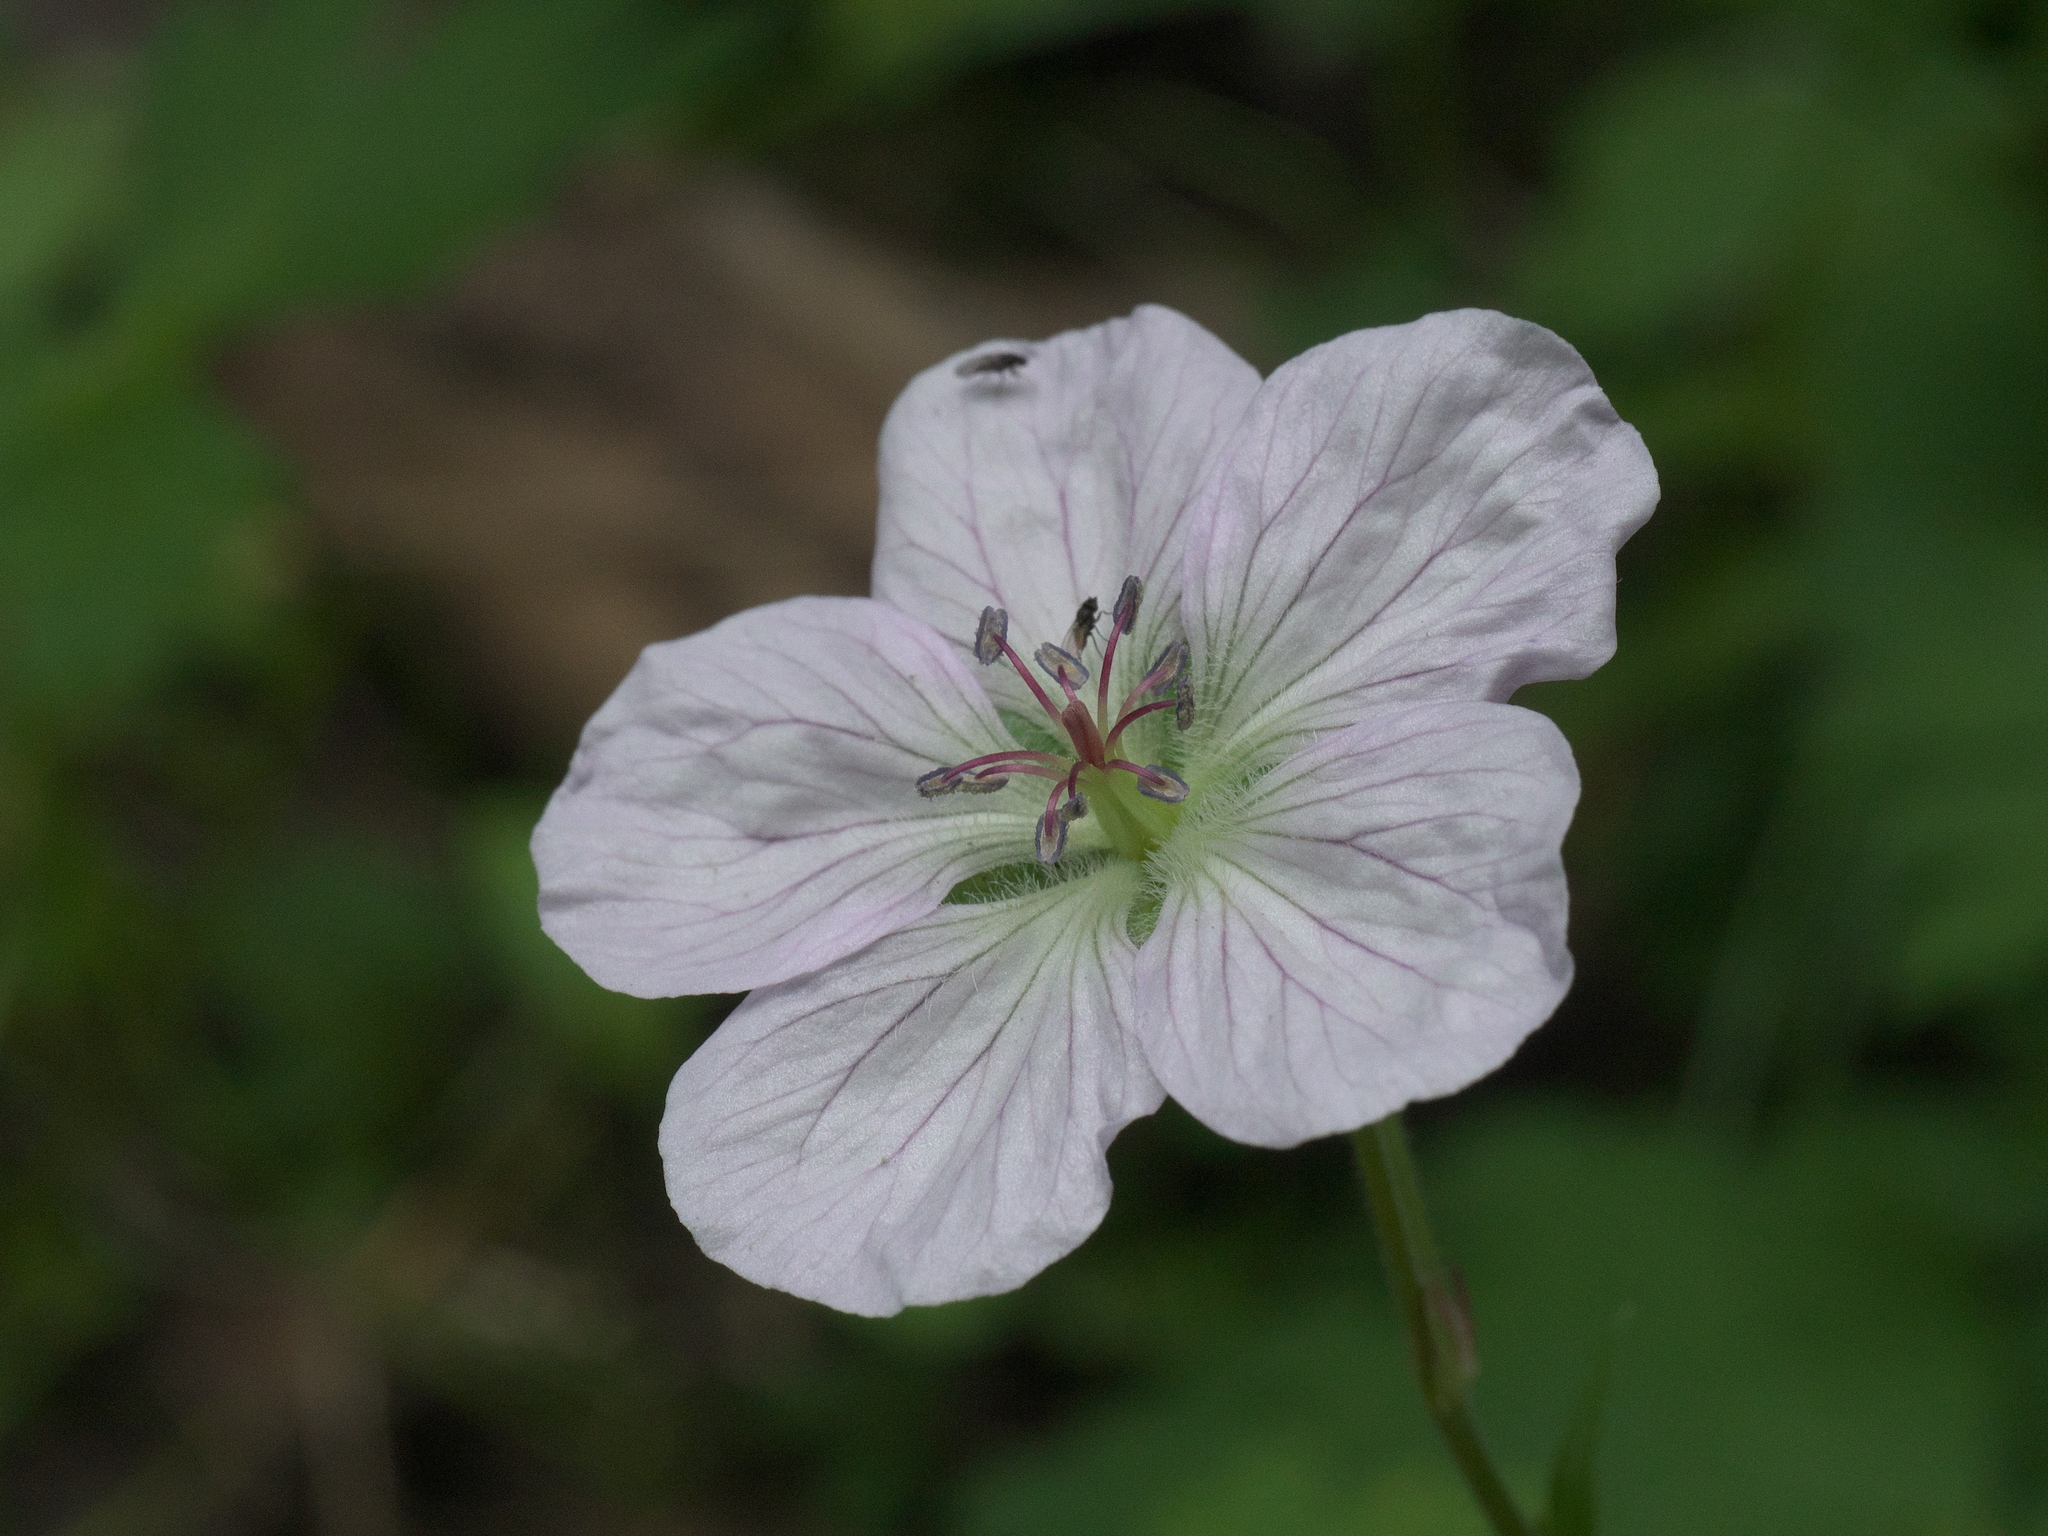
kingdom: Plantae
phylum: Tracheophyta
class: Magnoliopsida
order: Geraniales
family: Geraniaceae
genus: Geranium
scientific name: Geranium richardsonii
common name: Richardson's crane's-bill
